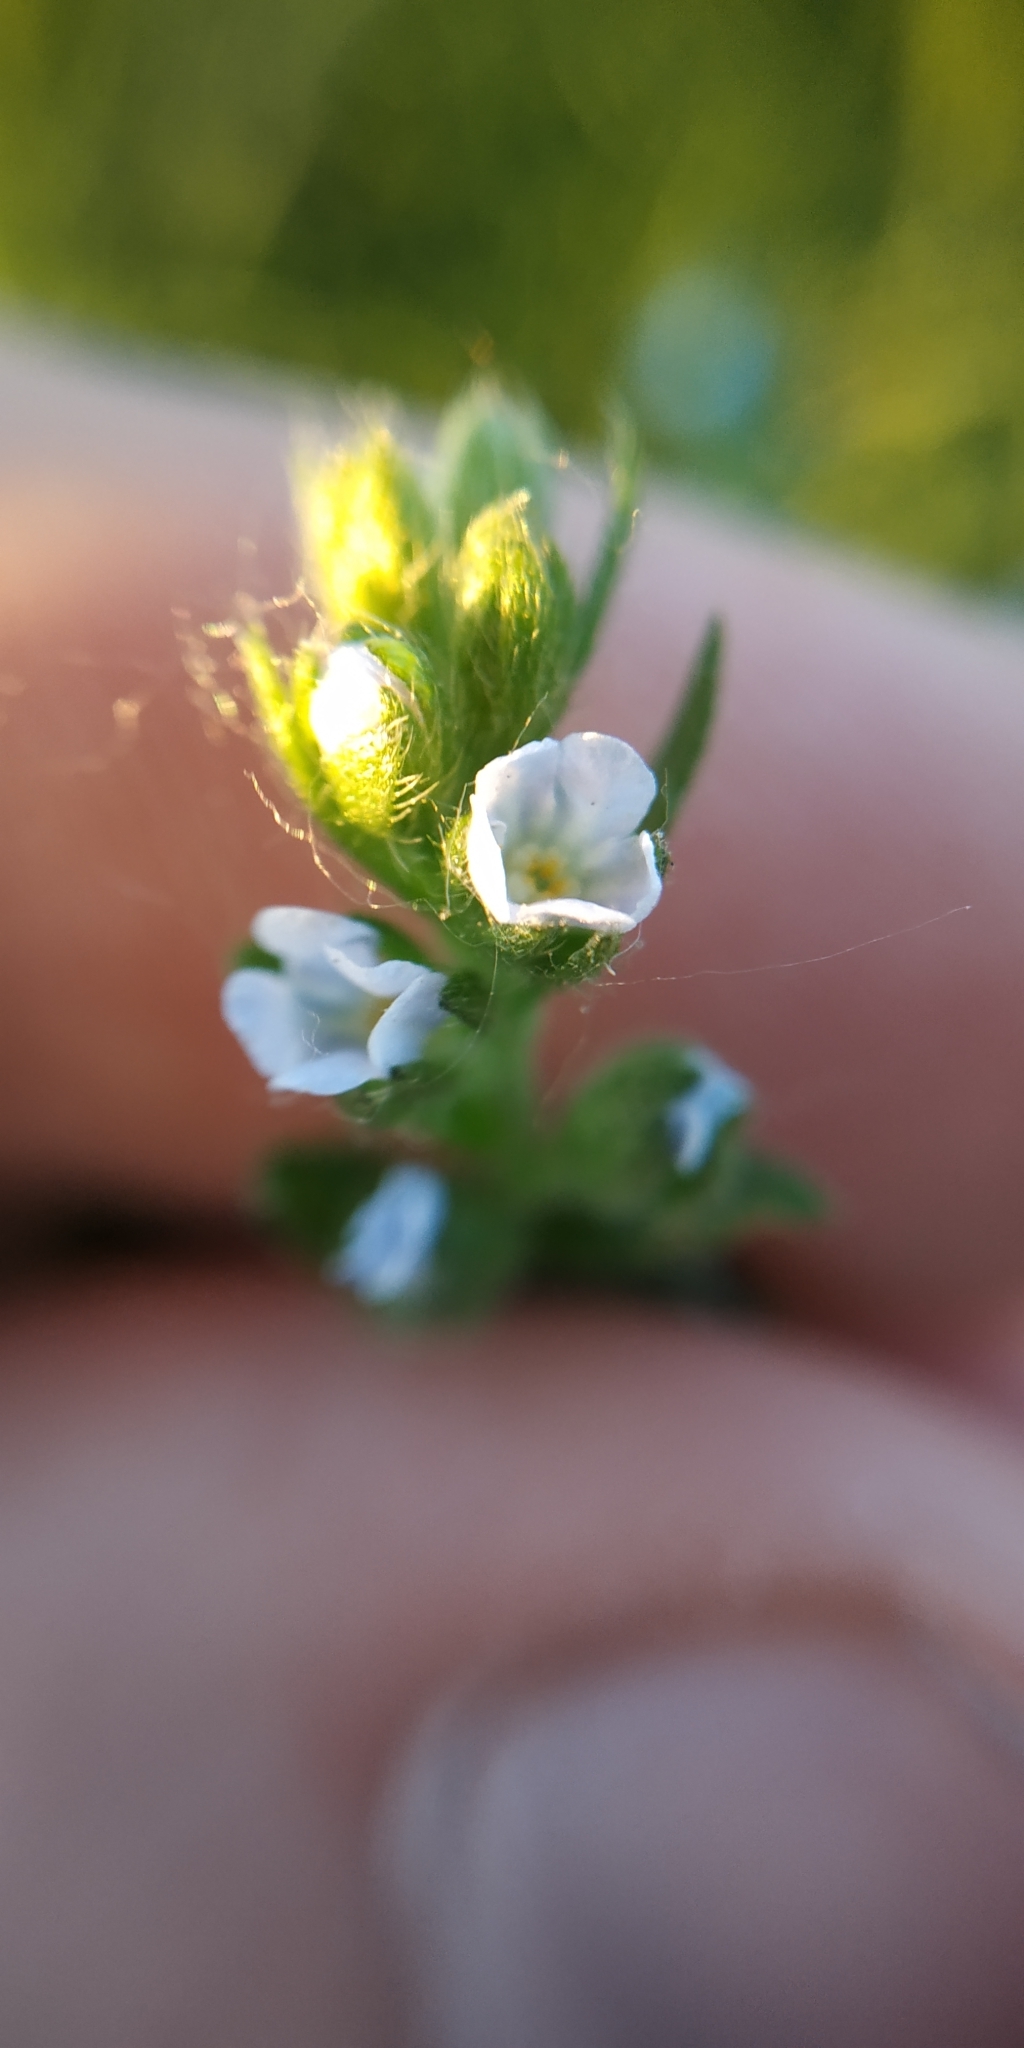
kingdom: Plantae
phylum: Tracheophyta
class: Magnoliopsida
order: Boraginales
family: Boraginaceae
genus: Lappula
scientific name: Lappula squarrosa
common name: European stickseed
